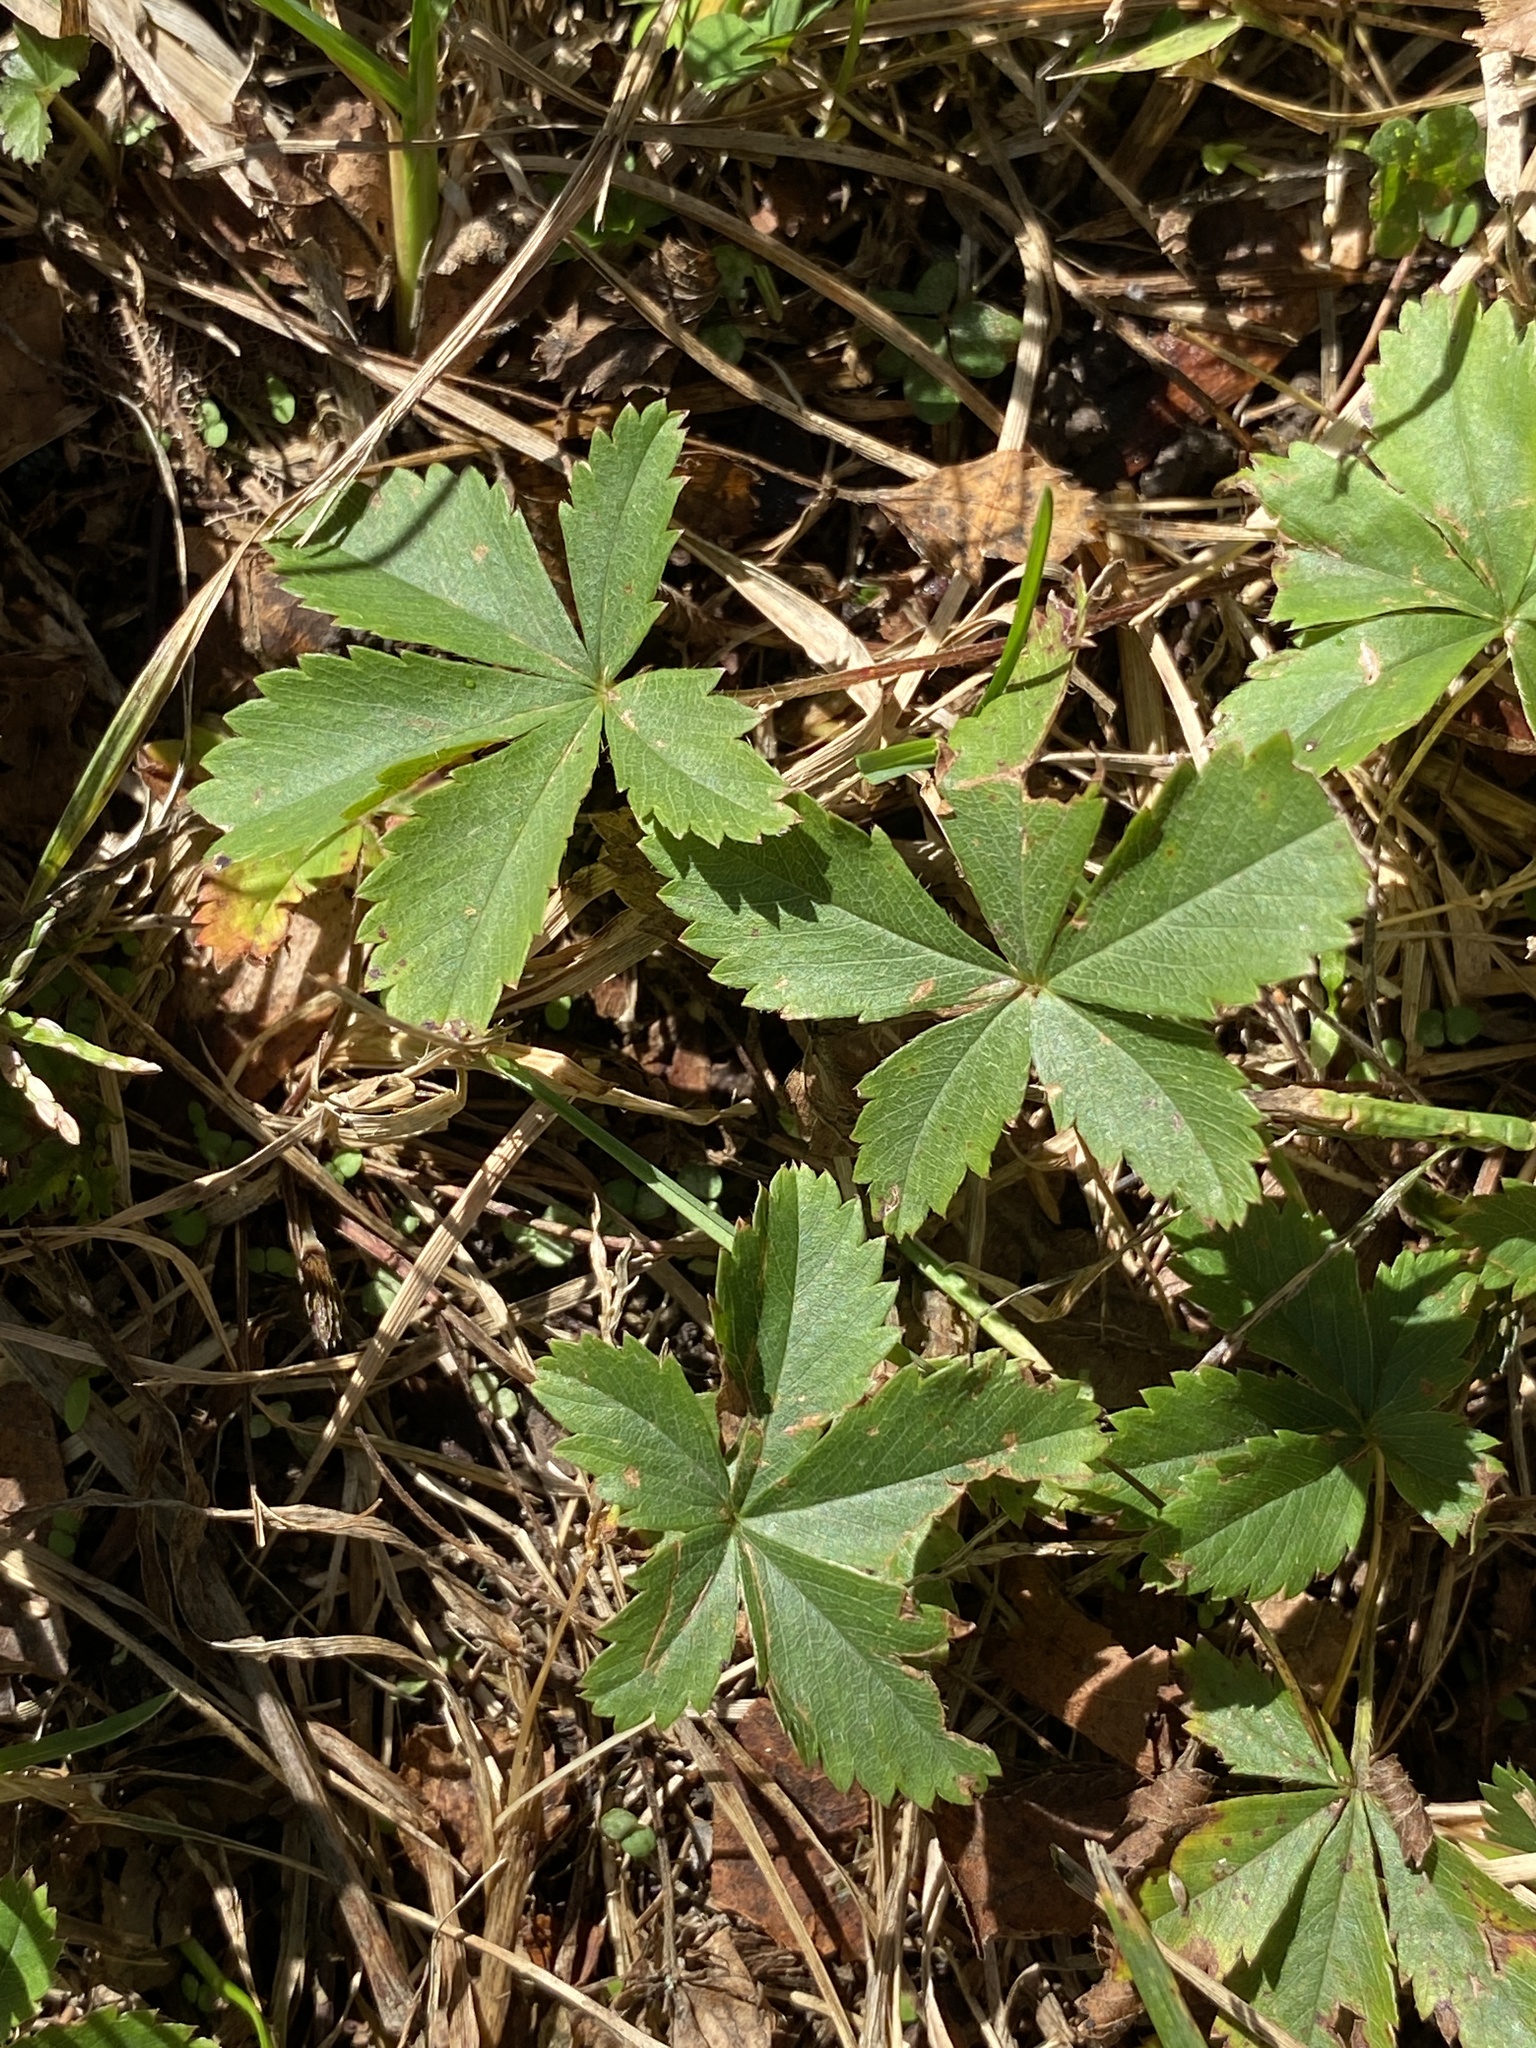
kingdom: Plantae
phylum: Tracheophyta
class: Magnoliopsida
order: Rosales
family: Rosaceae
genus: Potentilla
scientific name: Potentilla canadensis
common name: Canada cinquefoil
